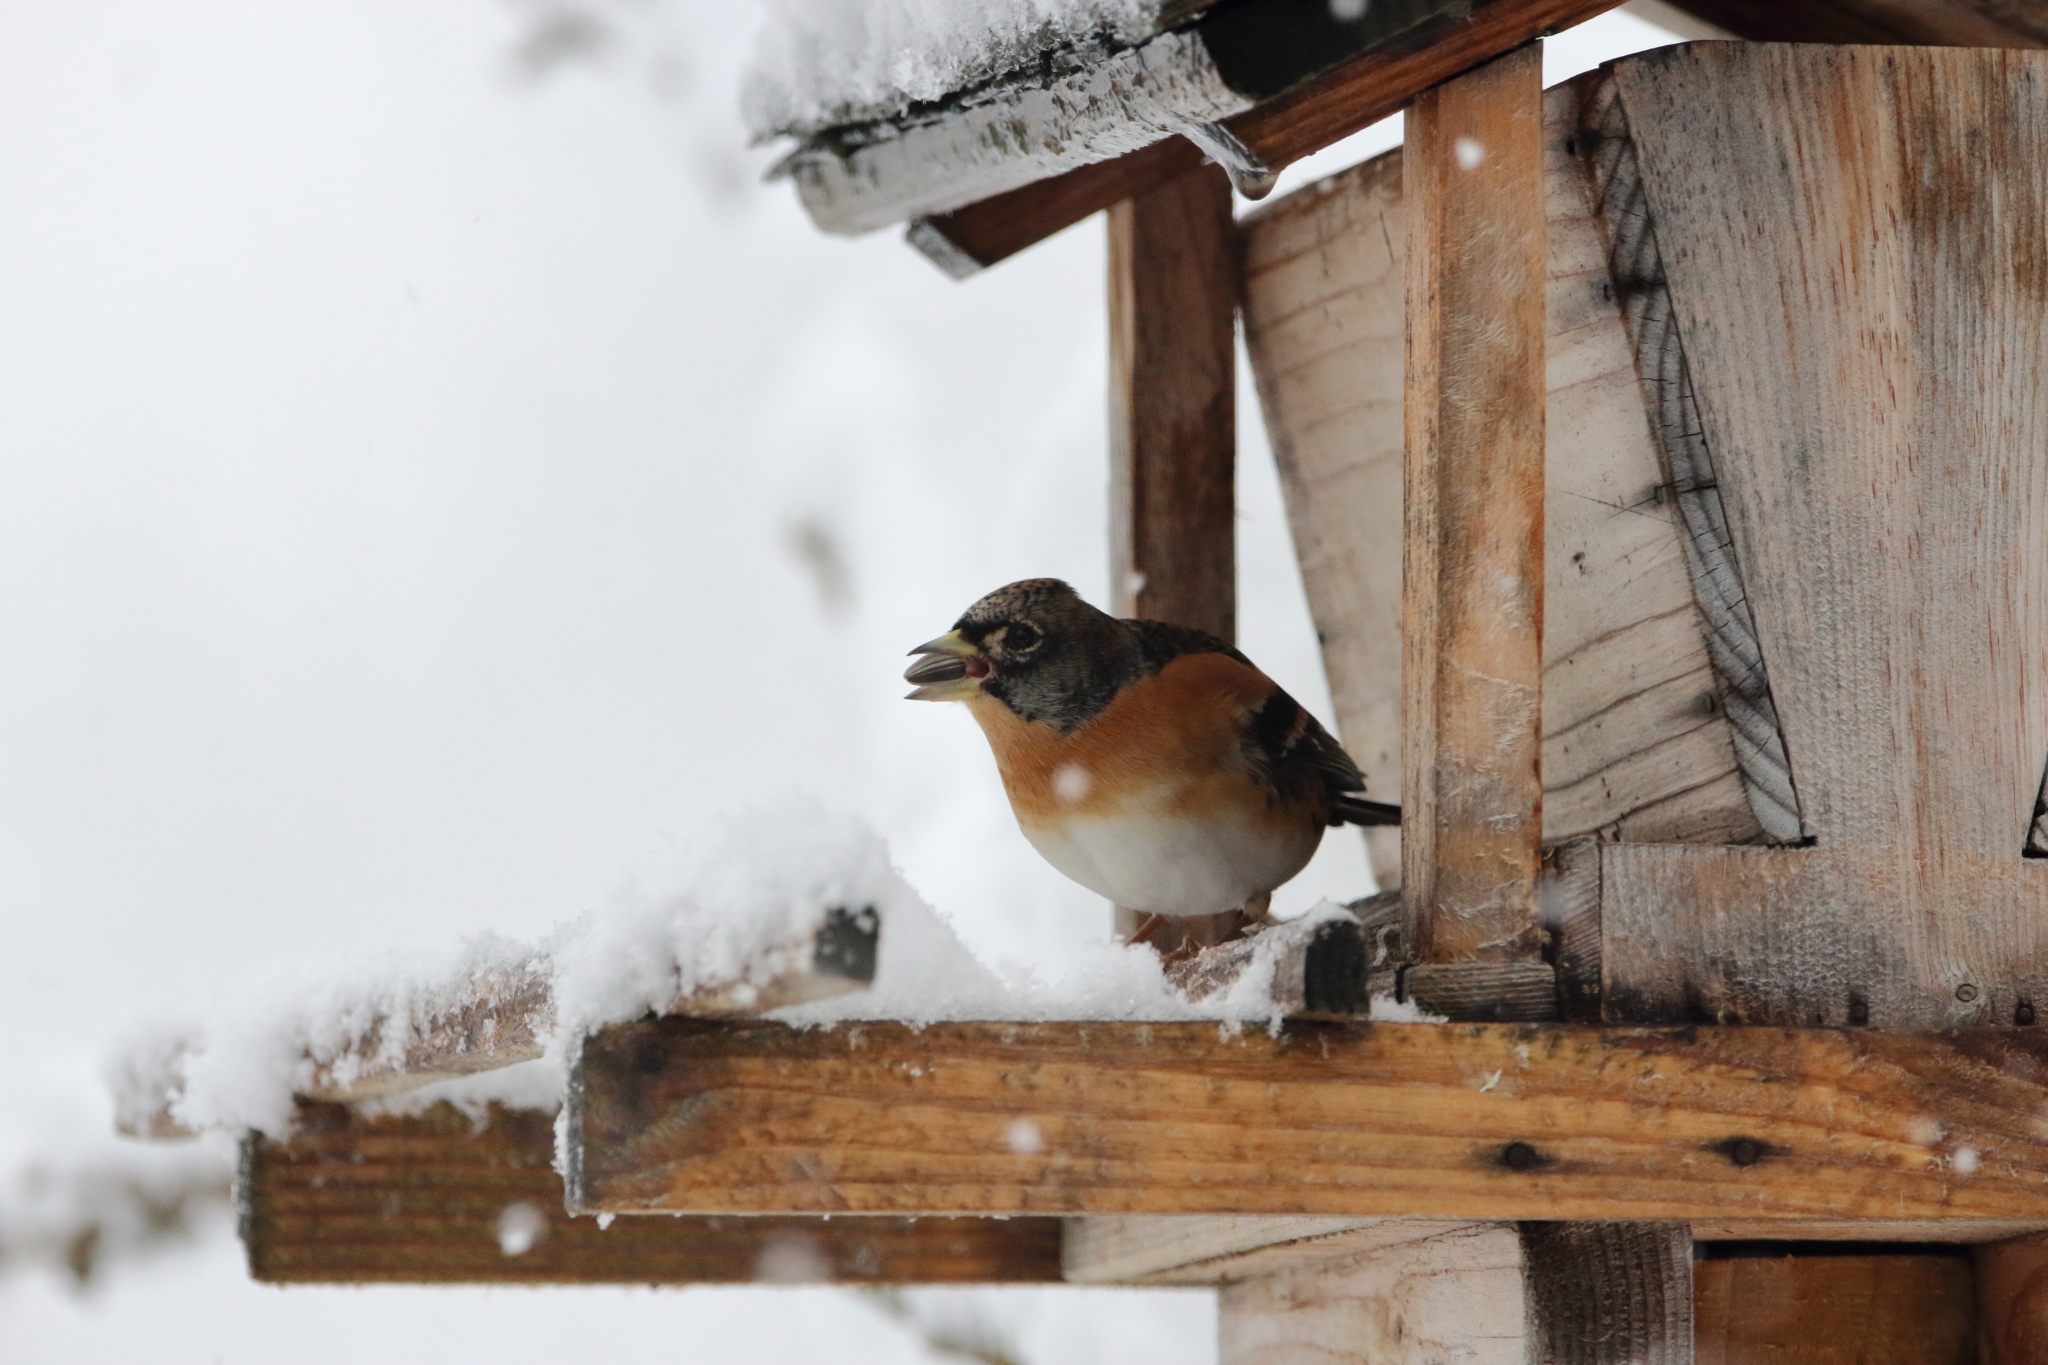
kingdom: Animalia
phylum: Chordata
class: Aves
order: Passeriformes
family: Fringillidae
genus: Fringilla
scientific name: Fringilla montifringilla
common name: Brambling
